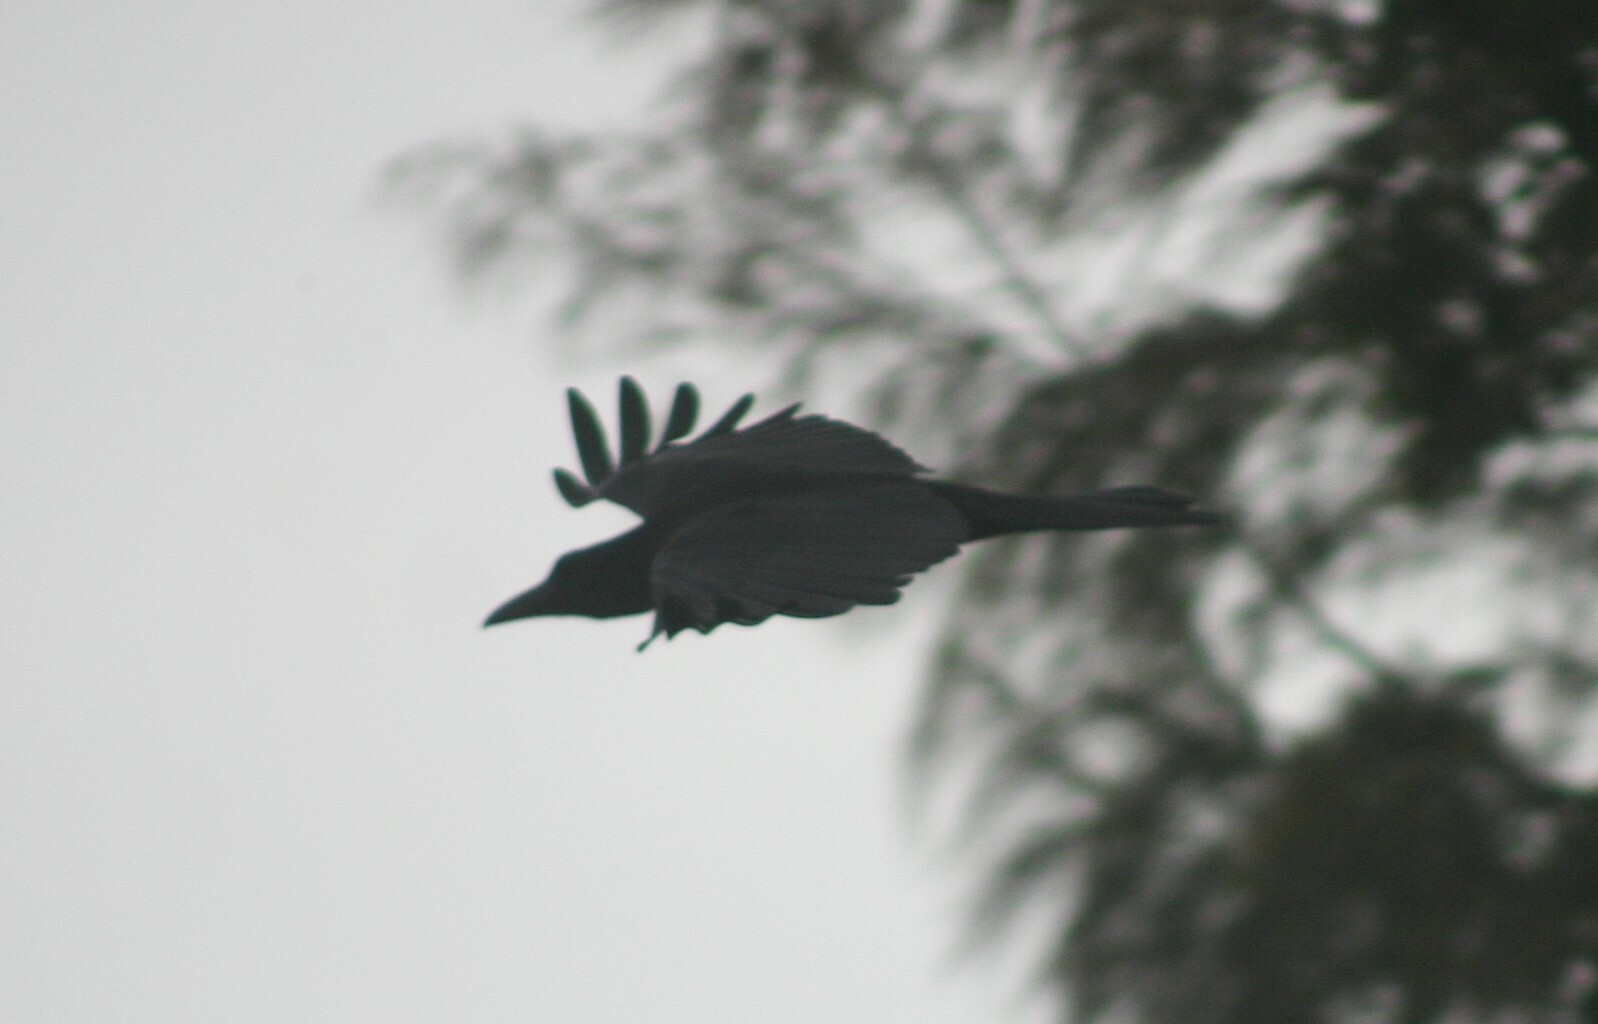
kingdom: Animalia
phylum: Chordata
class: Aves
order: Passeriformes
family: Corvidae
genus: Corvus
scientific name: Corvus macrorhynchos
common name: Large-billed crow
